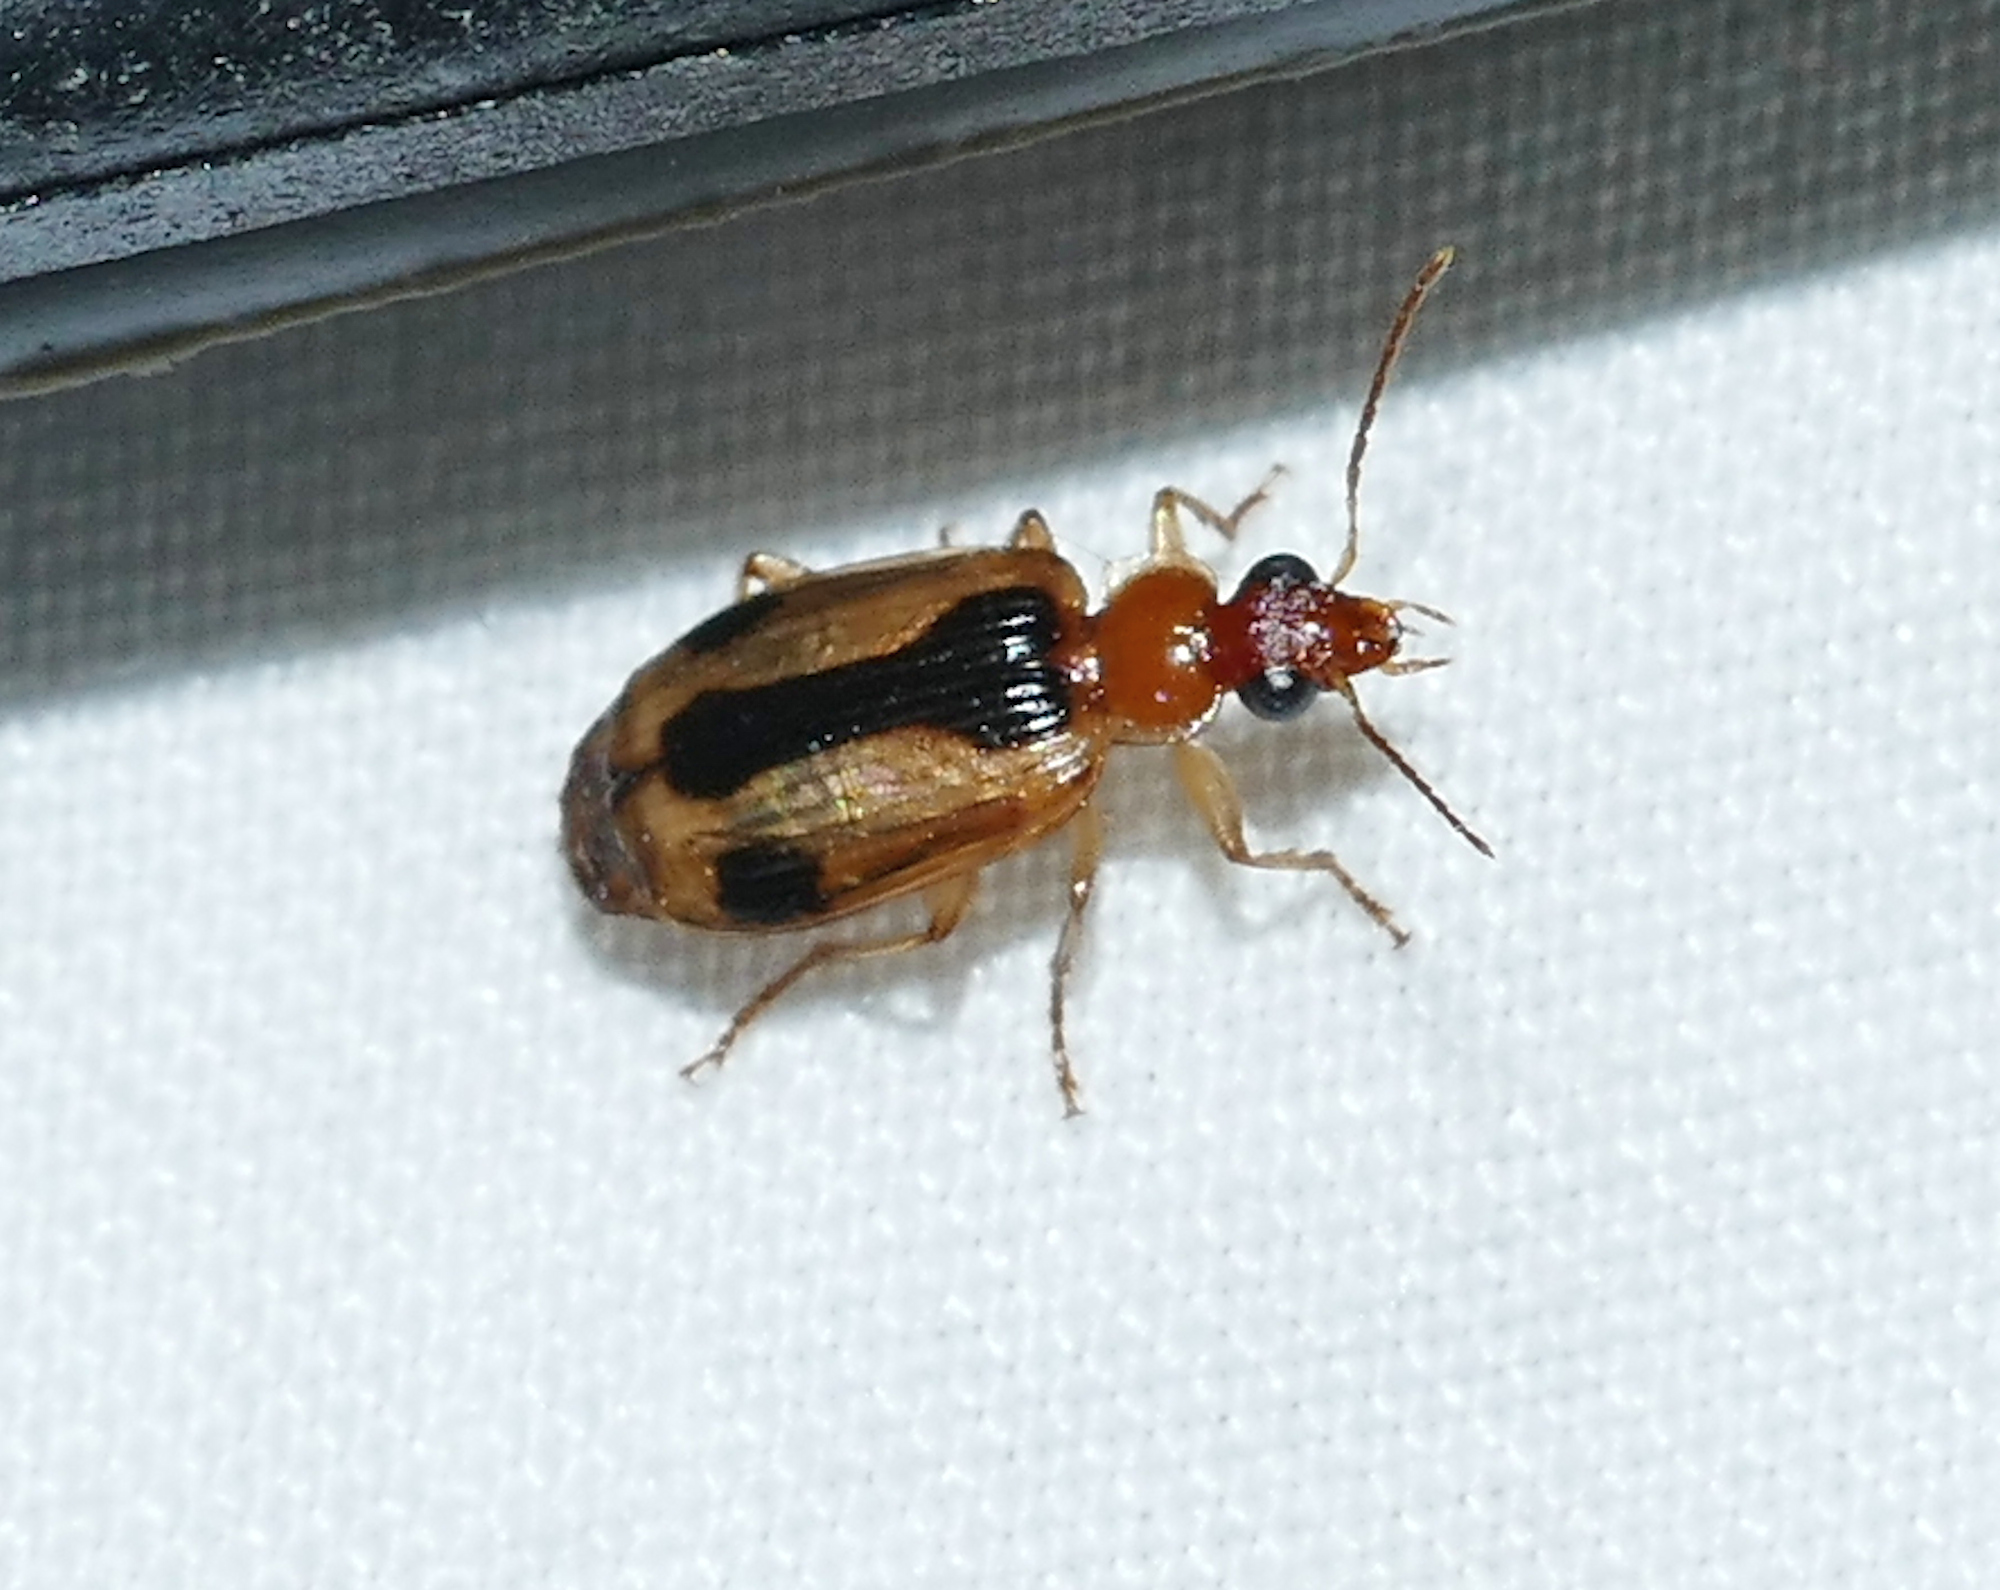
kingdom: Animalia
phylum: Arthropoda
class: Insecta
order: Coleoptera
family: Carabidae
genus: Lebia
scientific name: Lebia miranda
